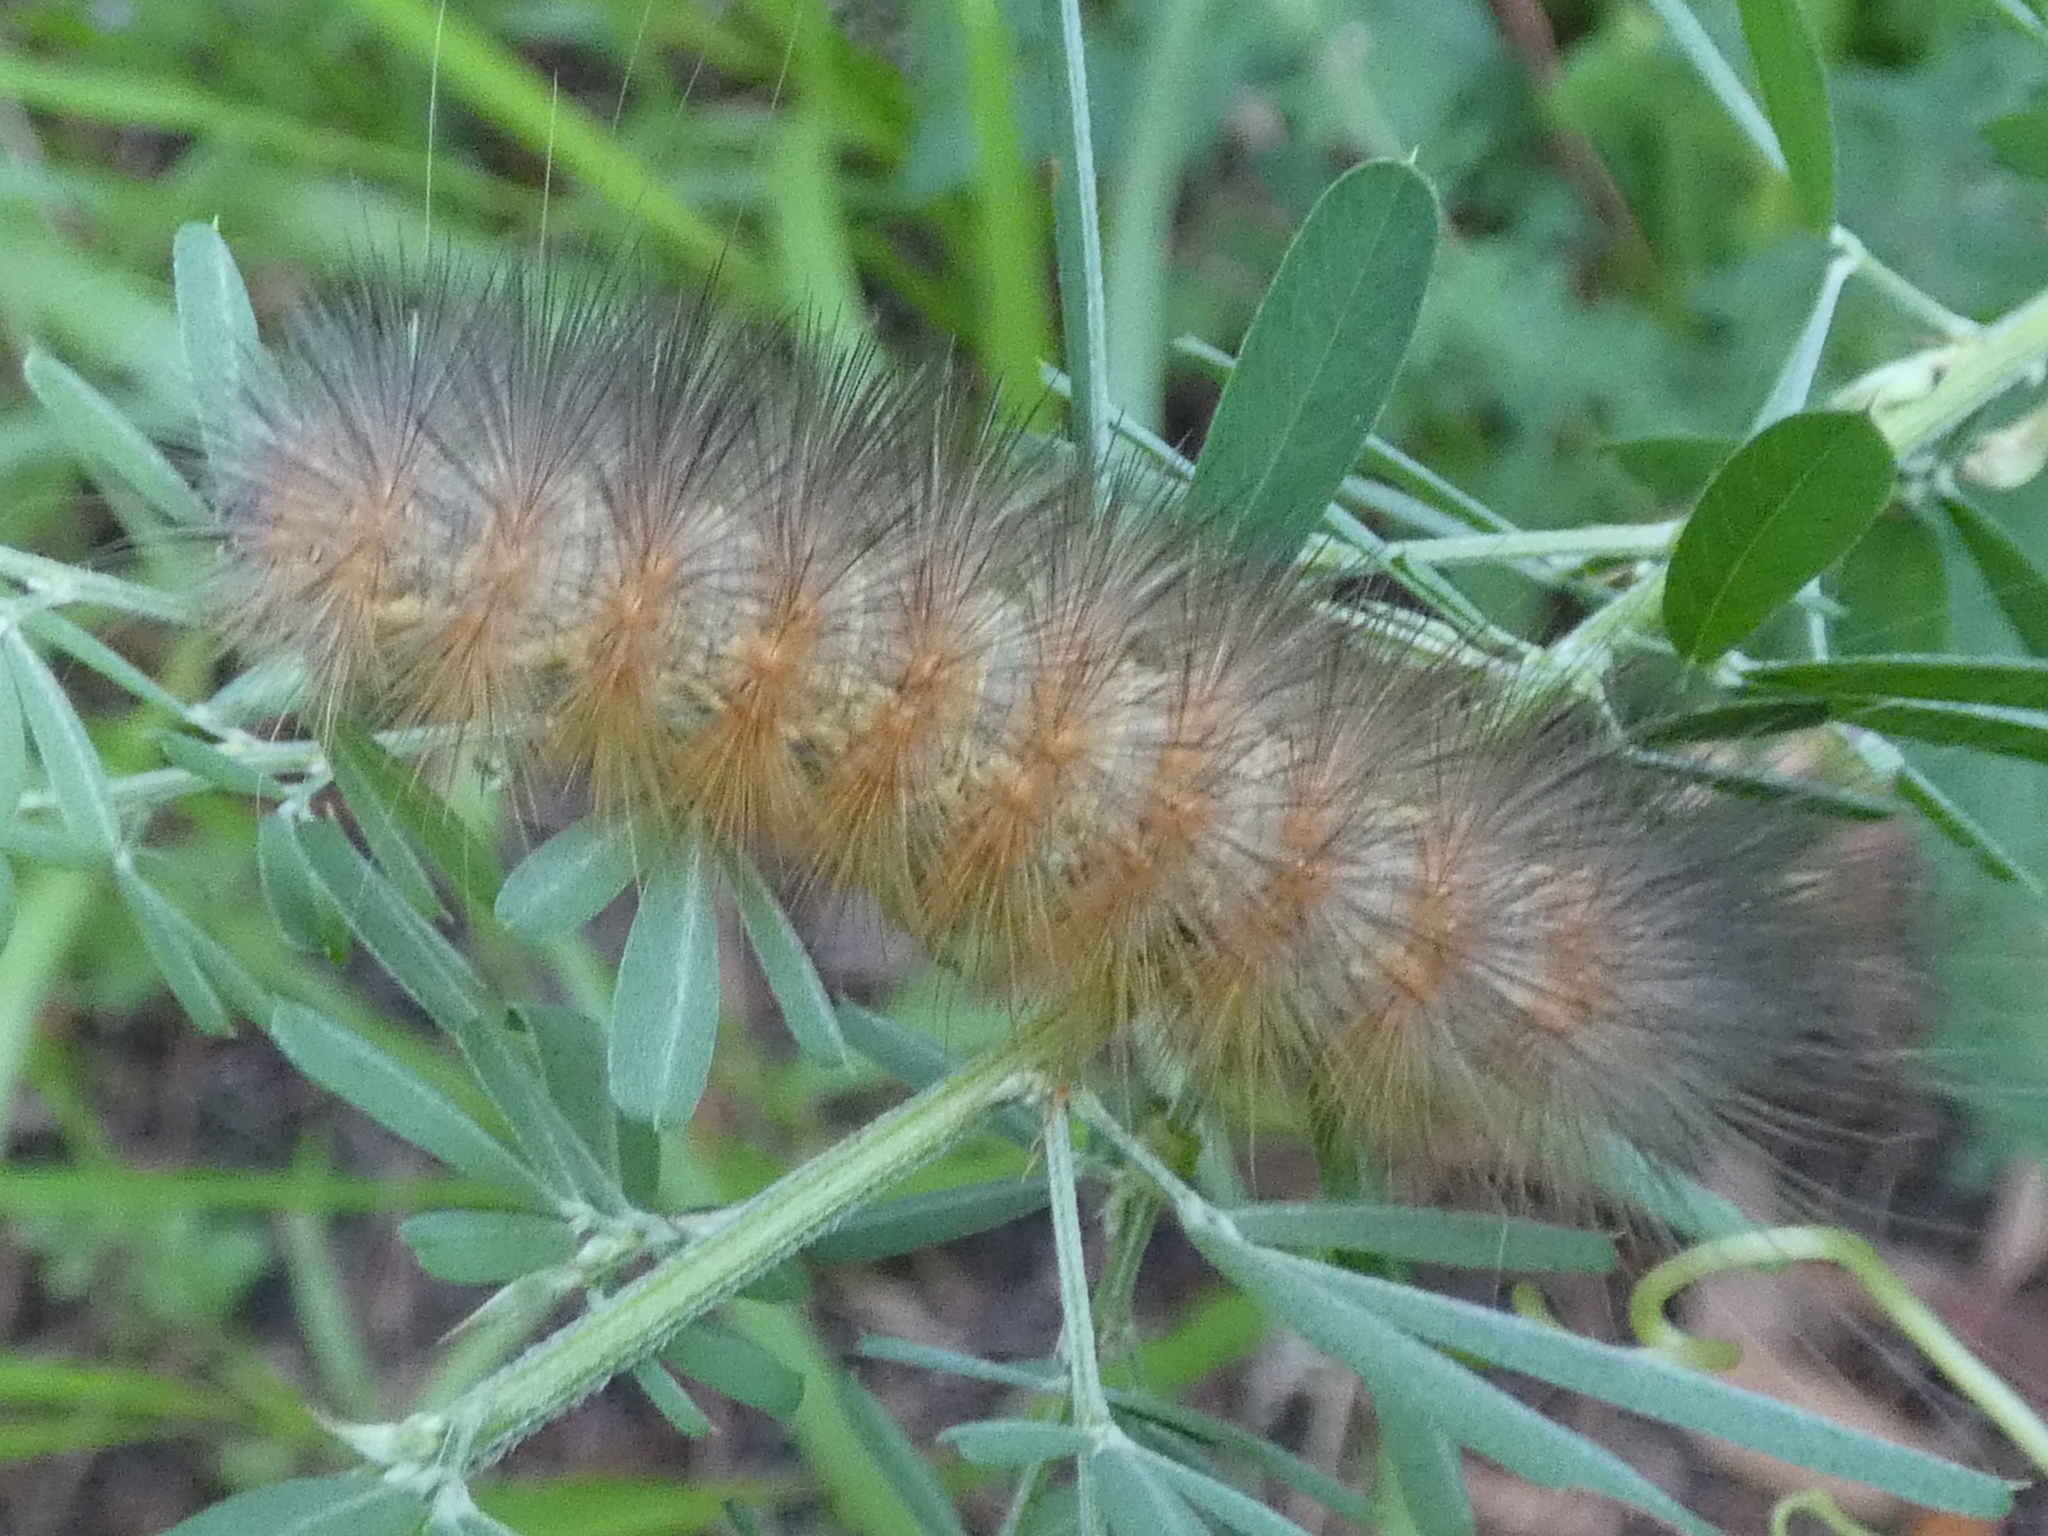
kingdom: Animalia
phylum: Arthropoda
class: Insecta
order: Lepidoptera
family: Erebidae
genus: Estigmene
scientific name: Estigmene acrea
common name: Salt marsh moth
